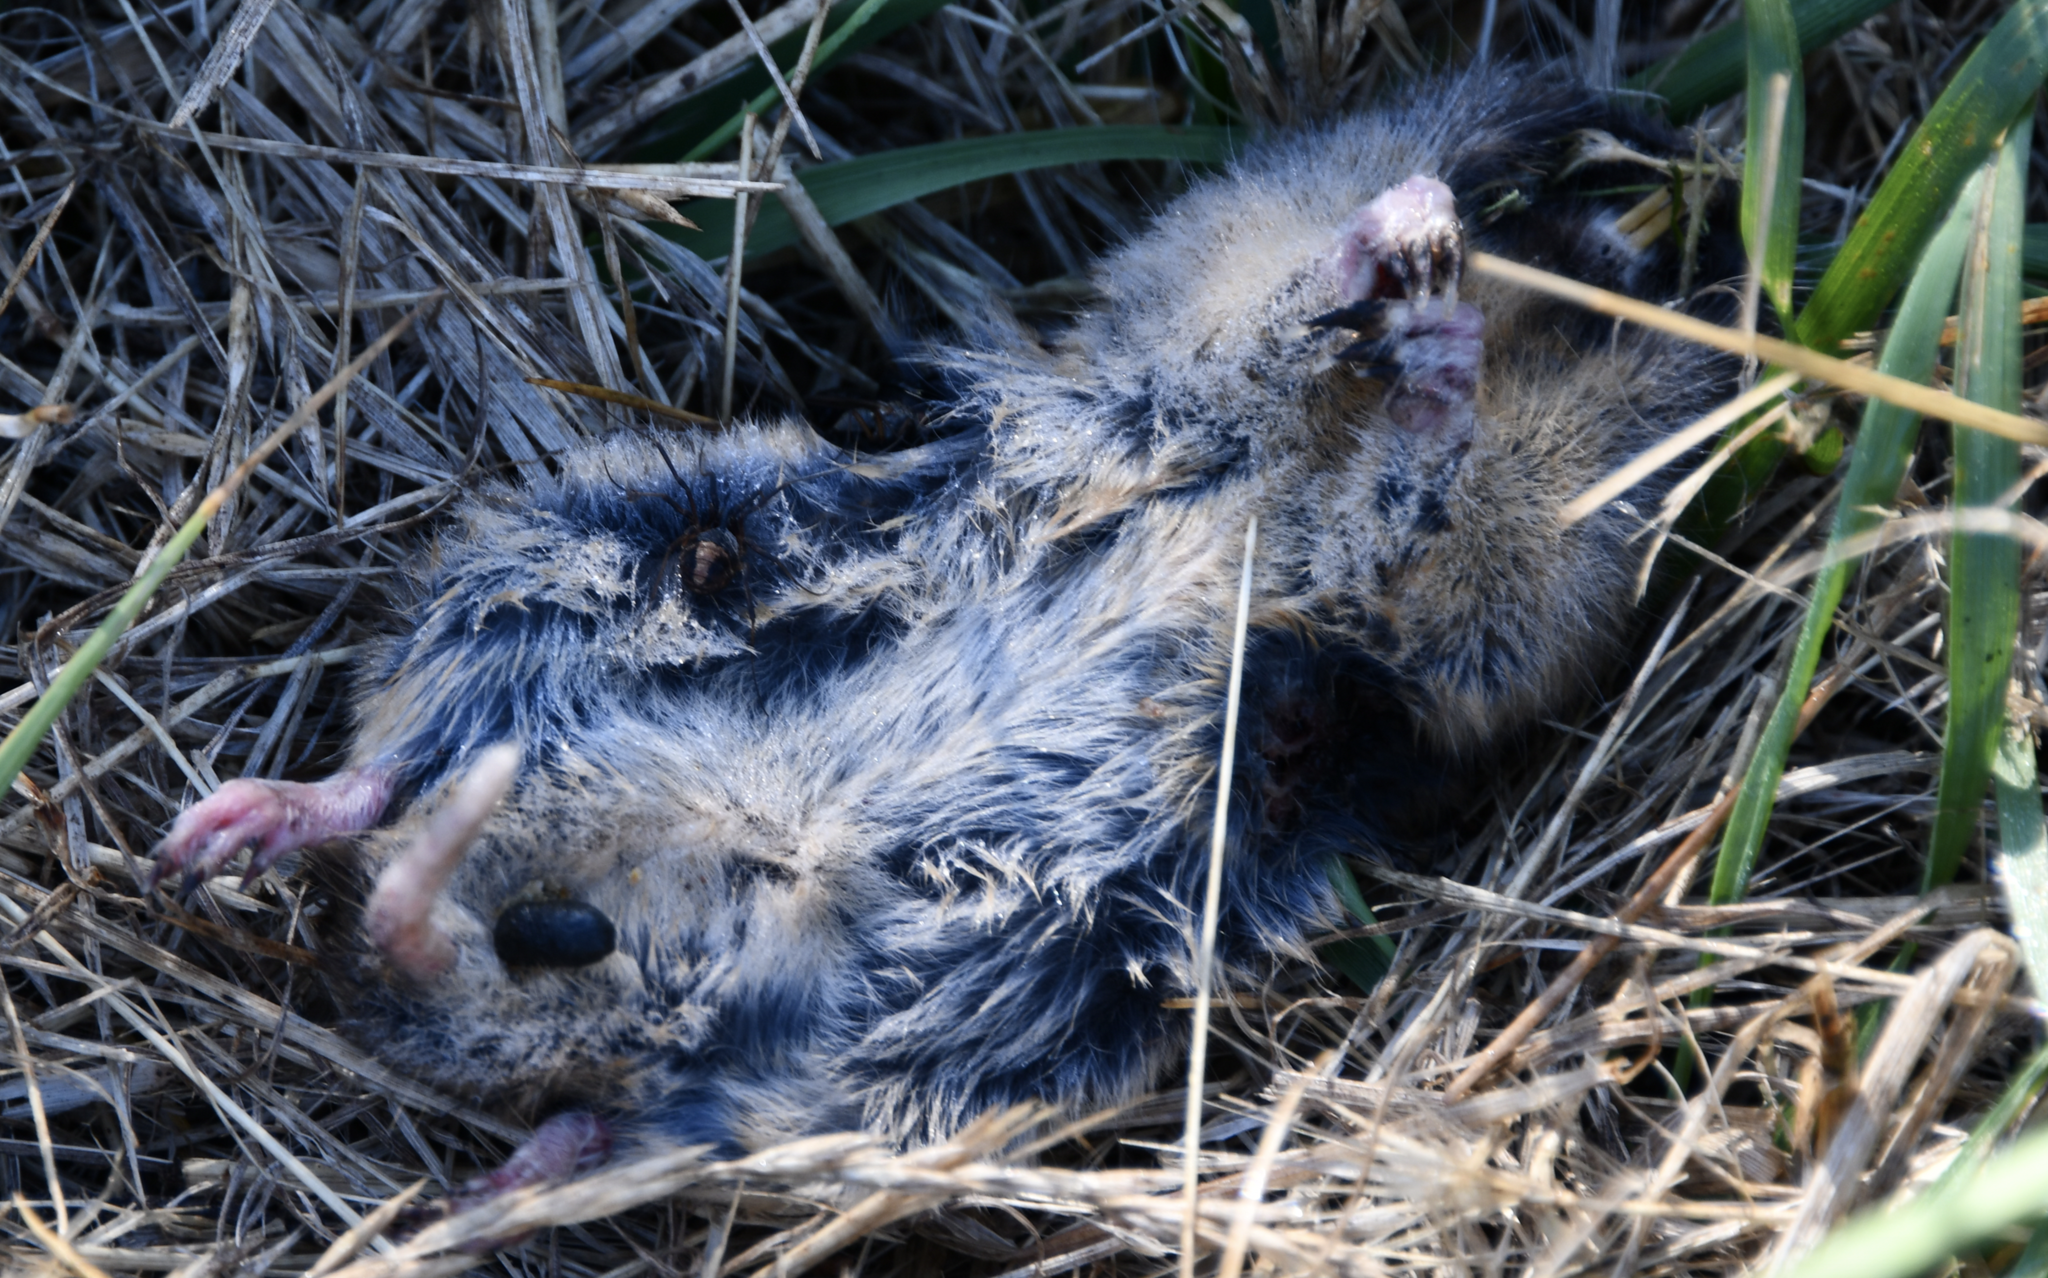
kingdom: Animalia
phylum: Chordata
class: Mammalia
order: Rodentia
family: Geomyidae
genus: Thomomys
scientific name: Thomomys bottae
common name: Botta's pocket gopher
